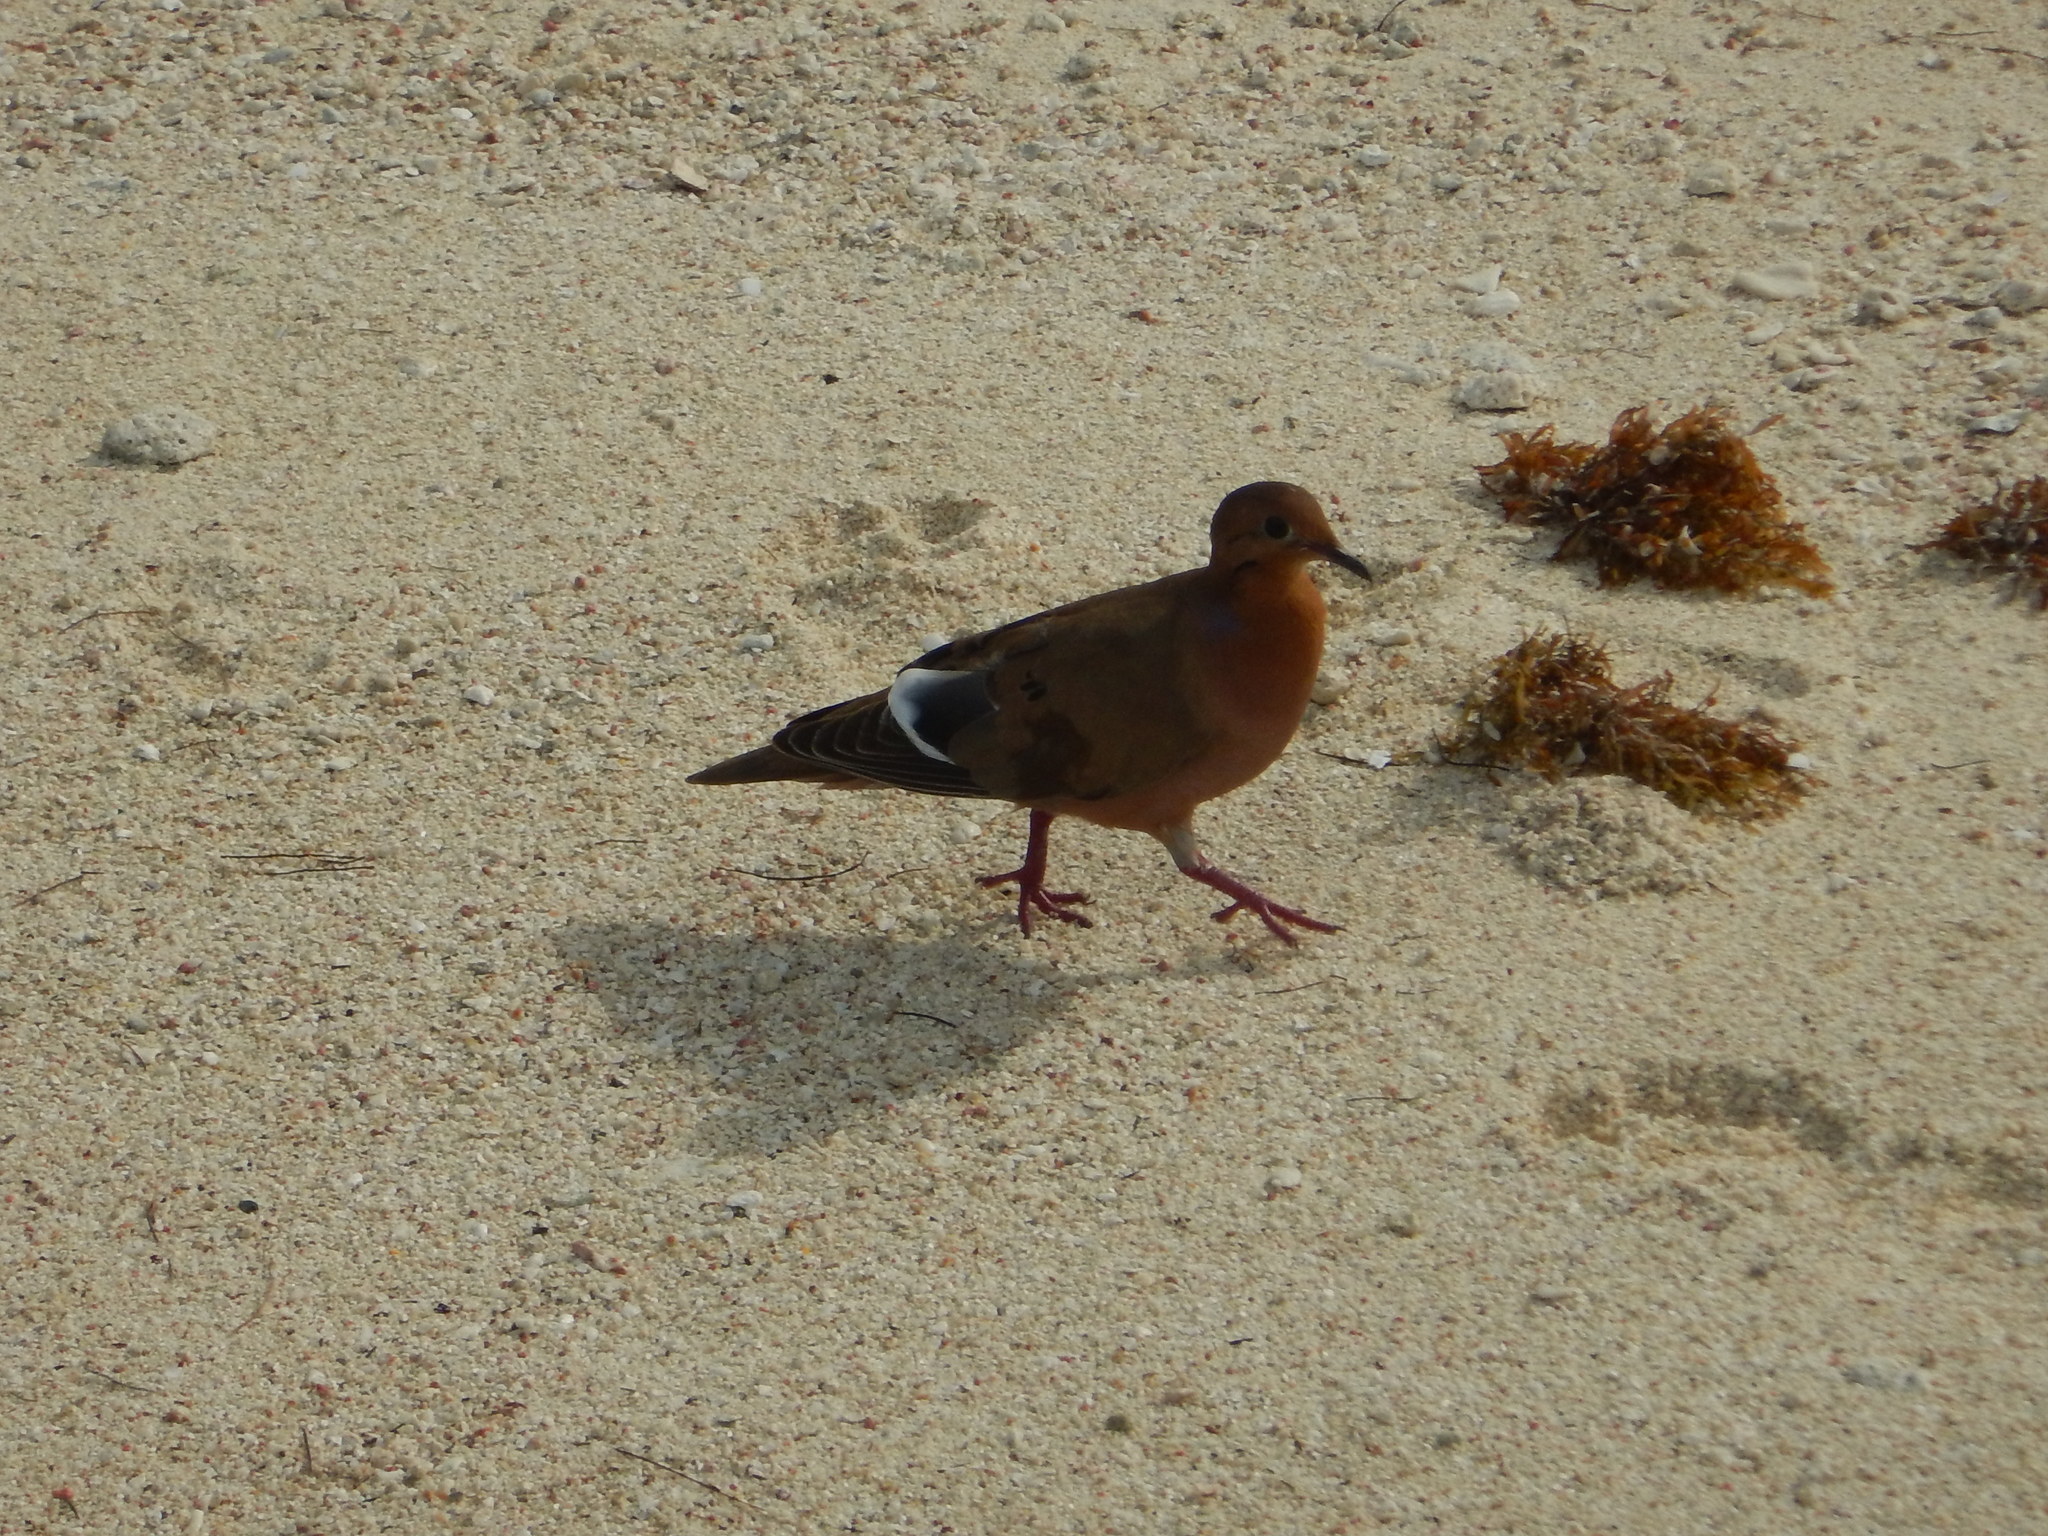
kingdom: Animalia
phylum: Chordata
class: Aves
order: Columbiformes
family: Columbidae
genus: Zenaida
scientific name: Zenaida aurita
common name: Zenaida dove
